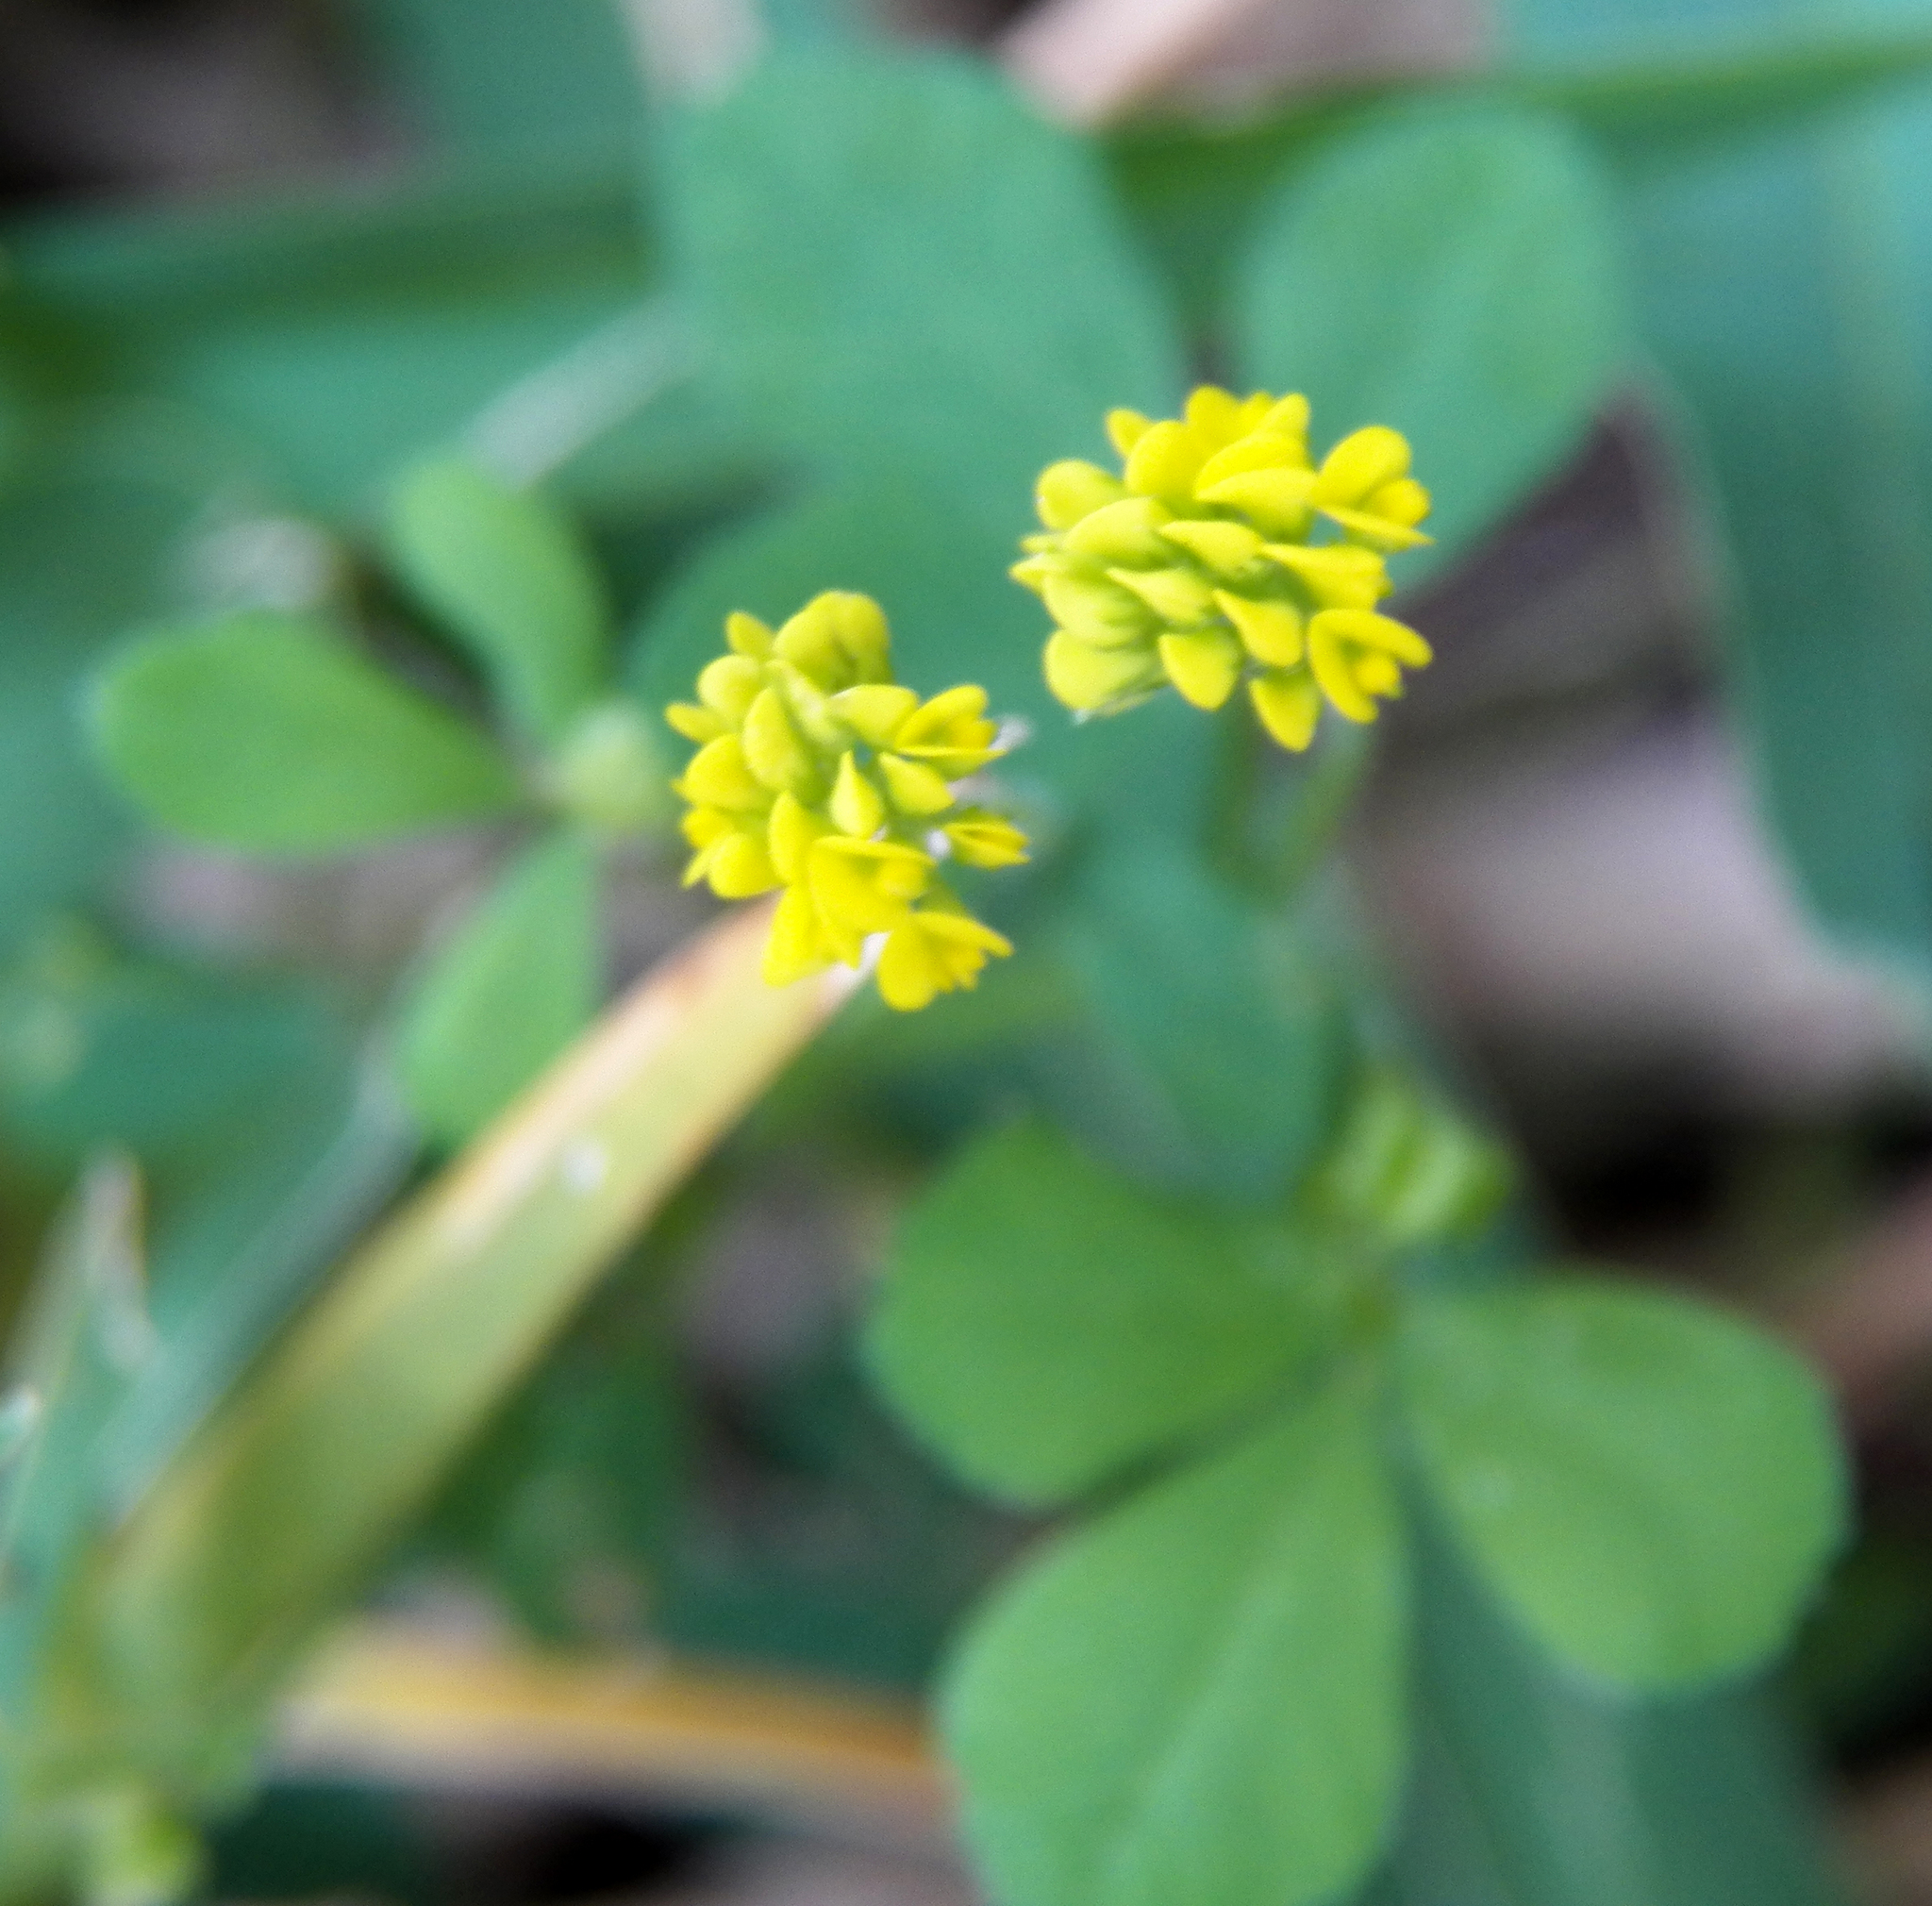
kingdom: Plantae
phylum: Tracheophyta
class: Magnoliopsida
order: Fabales
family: Fabaceae
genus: Medicago
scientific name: Medicago lupulina
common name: Black medick
